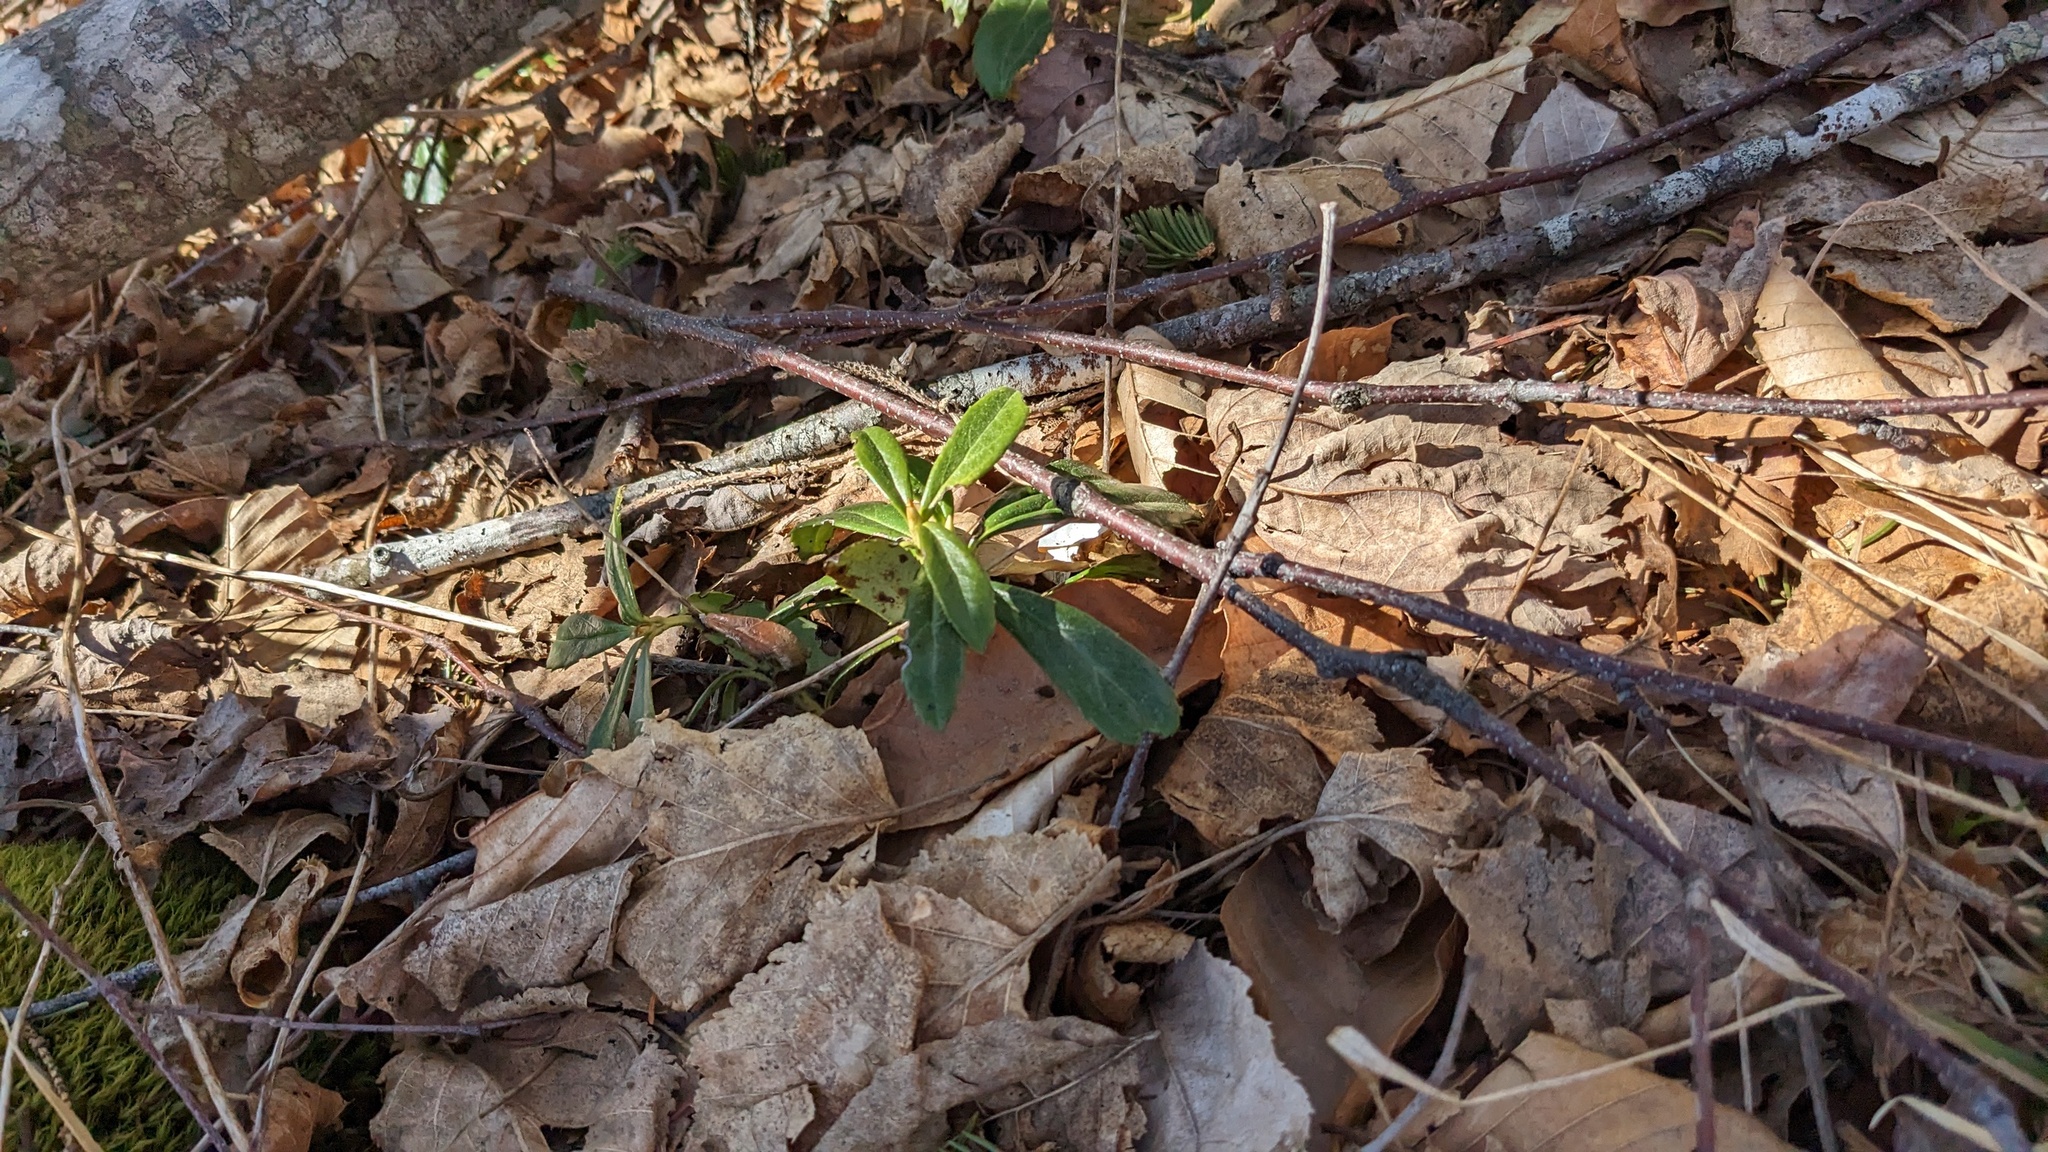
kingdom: Plantae
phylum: Tracheophyta
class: Magnoliopsida
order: Ericales
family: Ericaceae
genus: Chimaphila
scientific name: Chimaphila umbellata
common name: Pipsissewa
